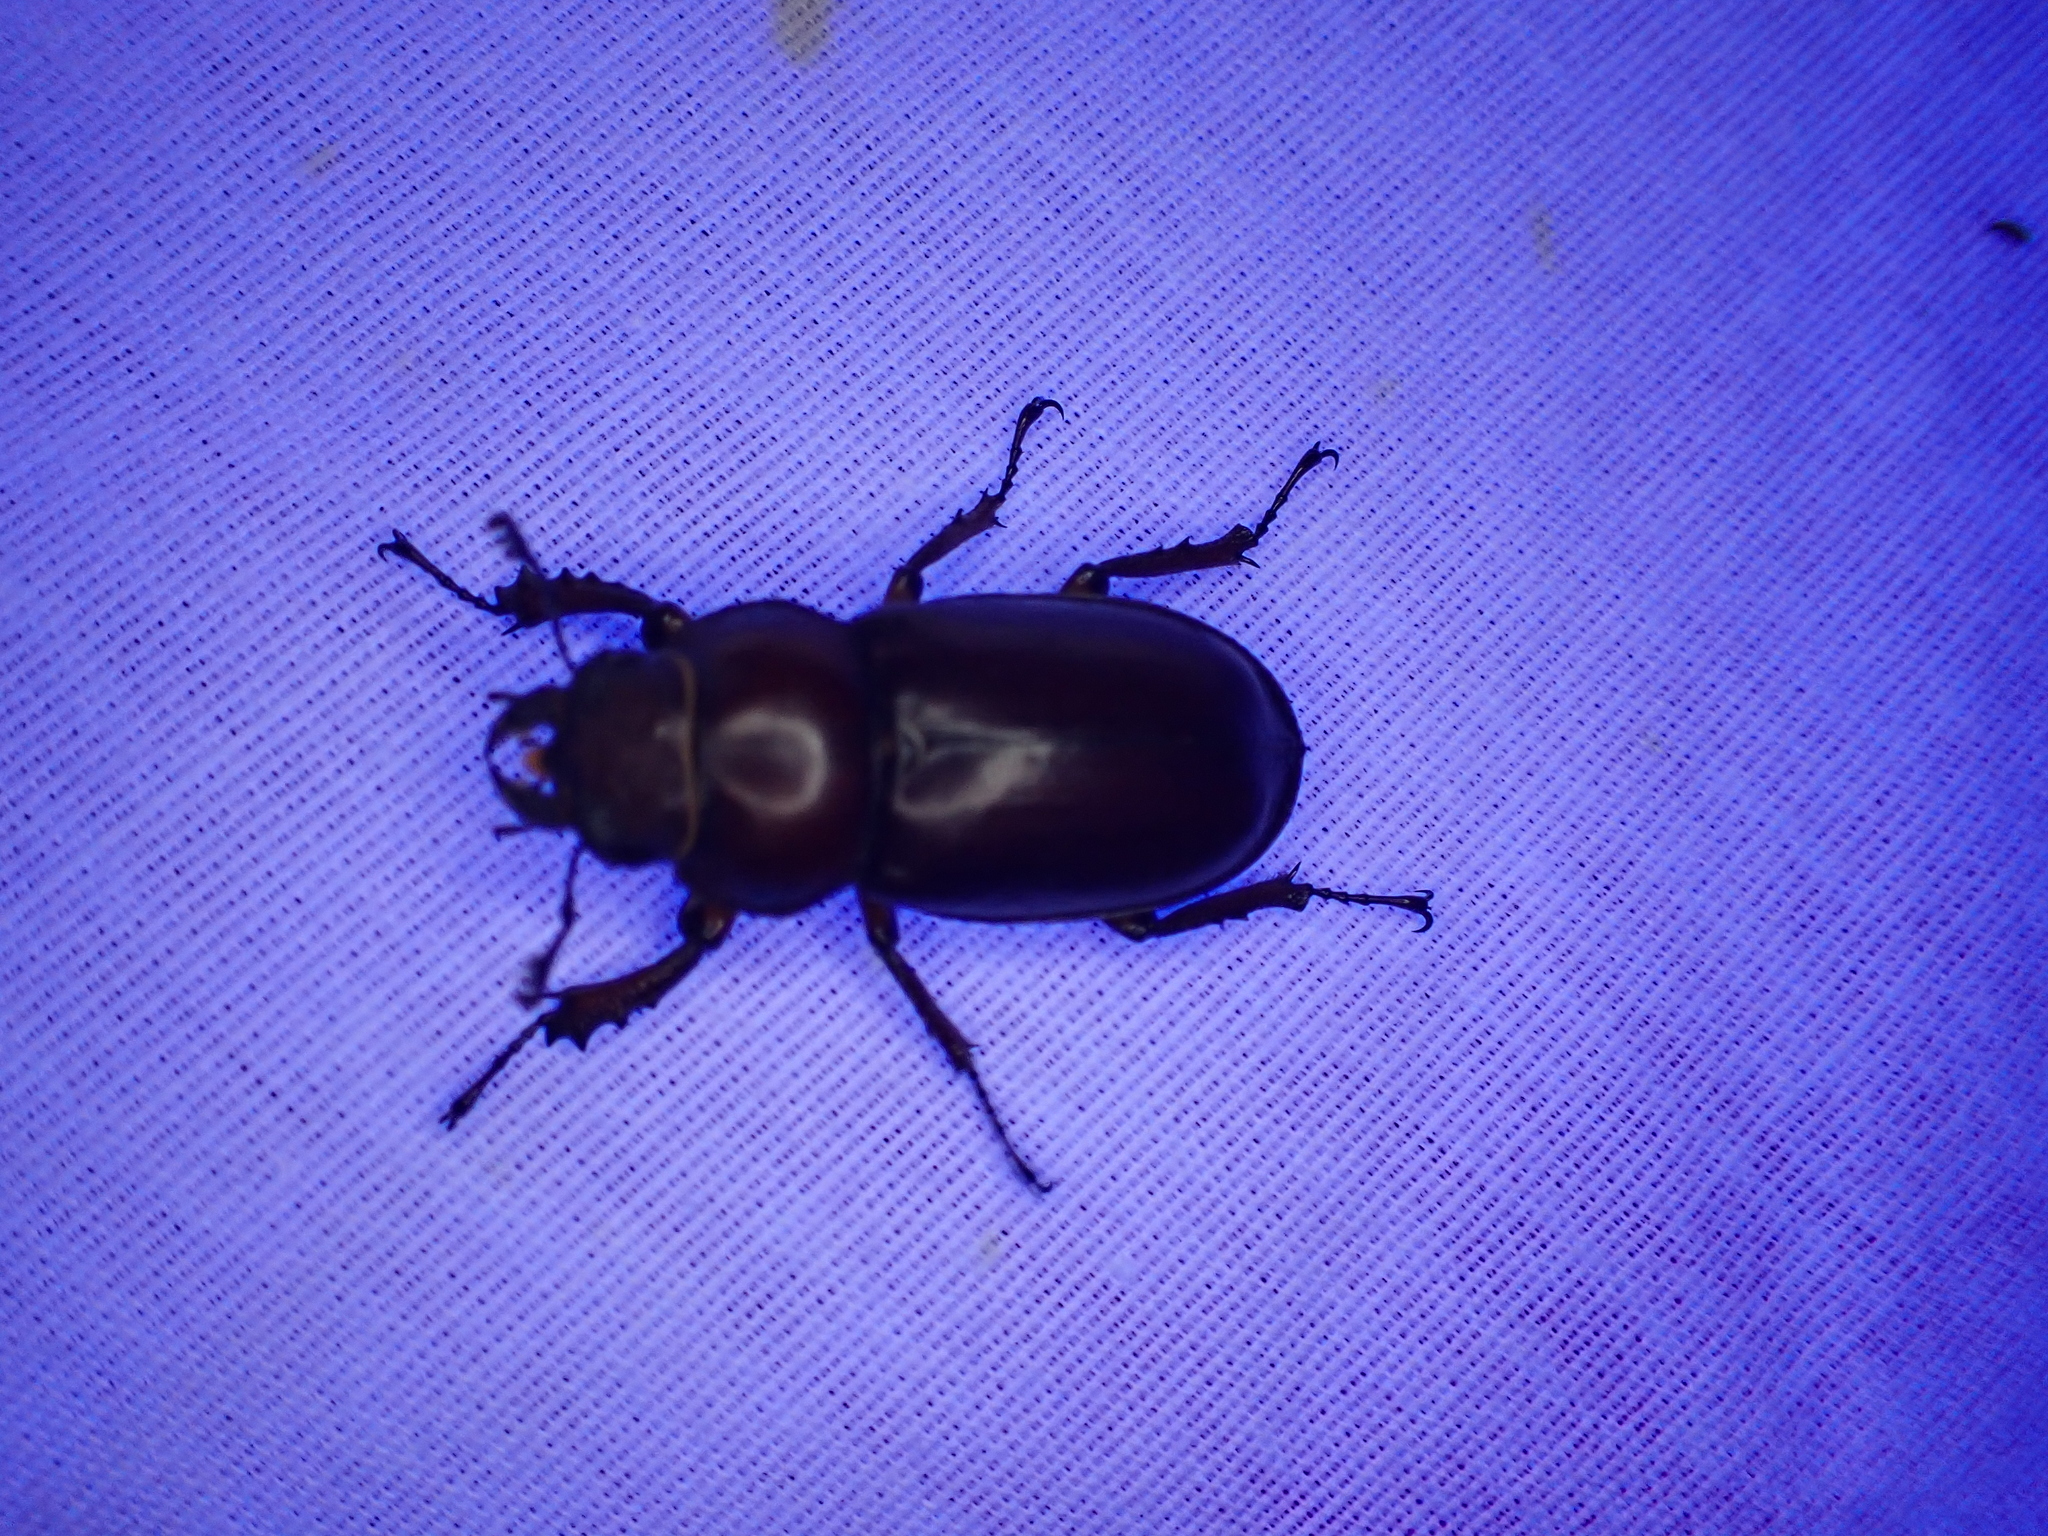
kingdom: Animalia
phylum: Arthropoda
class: Insecta
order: Coleoptera
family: Lucanidae
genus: Lucanus
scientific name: Lucanus capreolus
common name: Stag beetle
